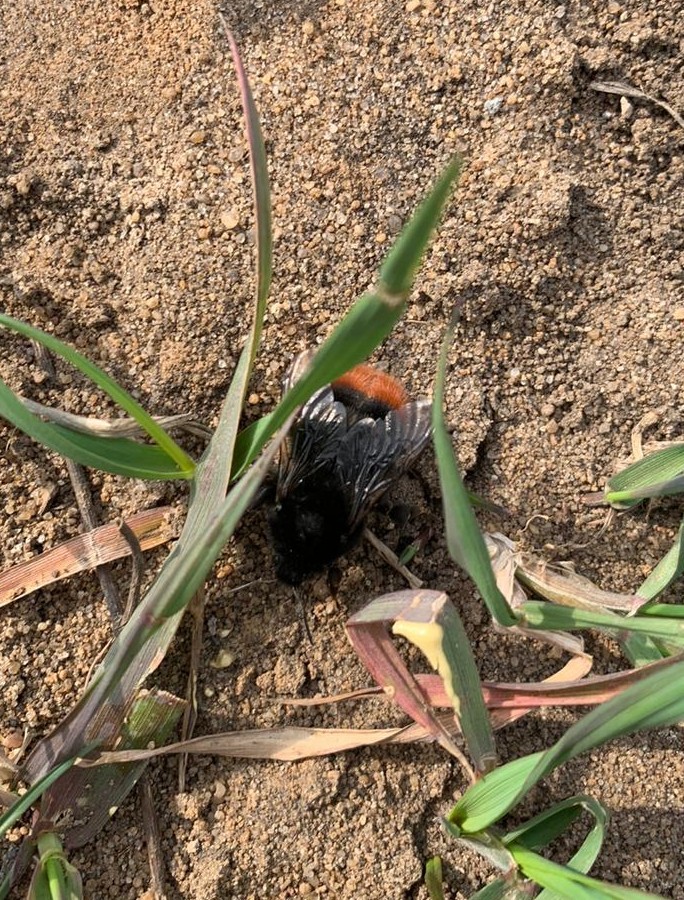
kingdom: Animalia
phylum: Arthropoda
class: Insecta
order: Hymenoptera
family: Apidae
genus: Bombus
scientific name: Bombus lapidarius
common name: Large red-tailed humble-bee
